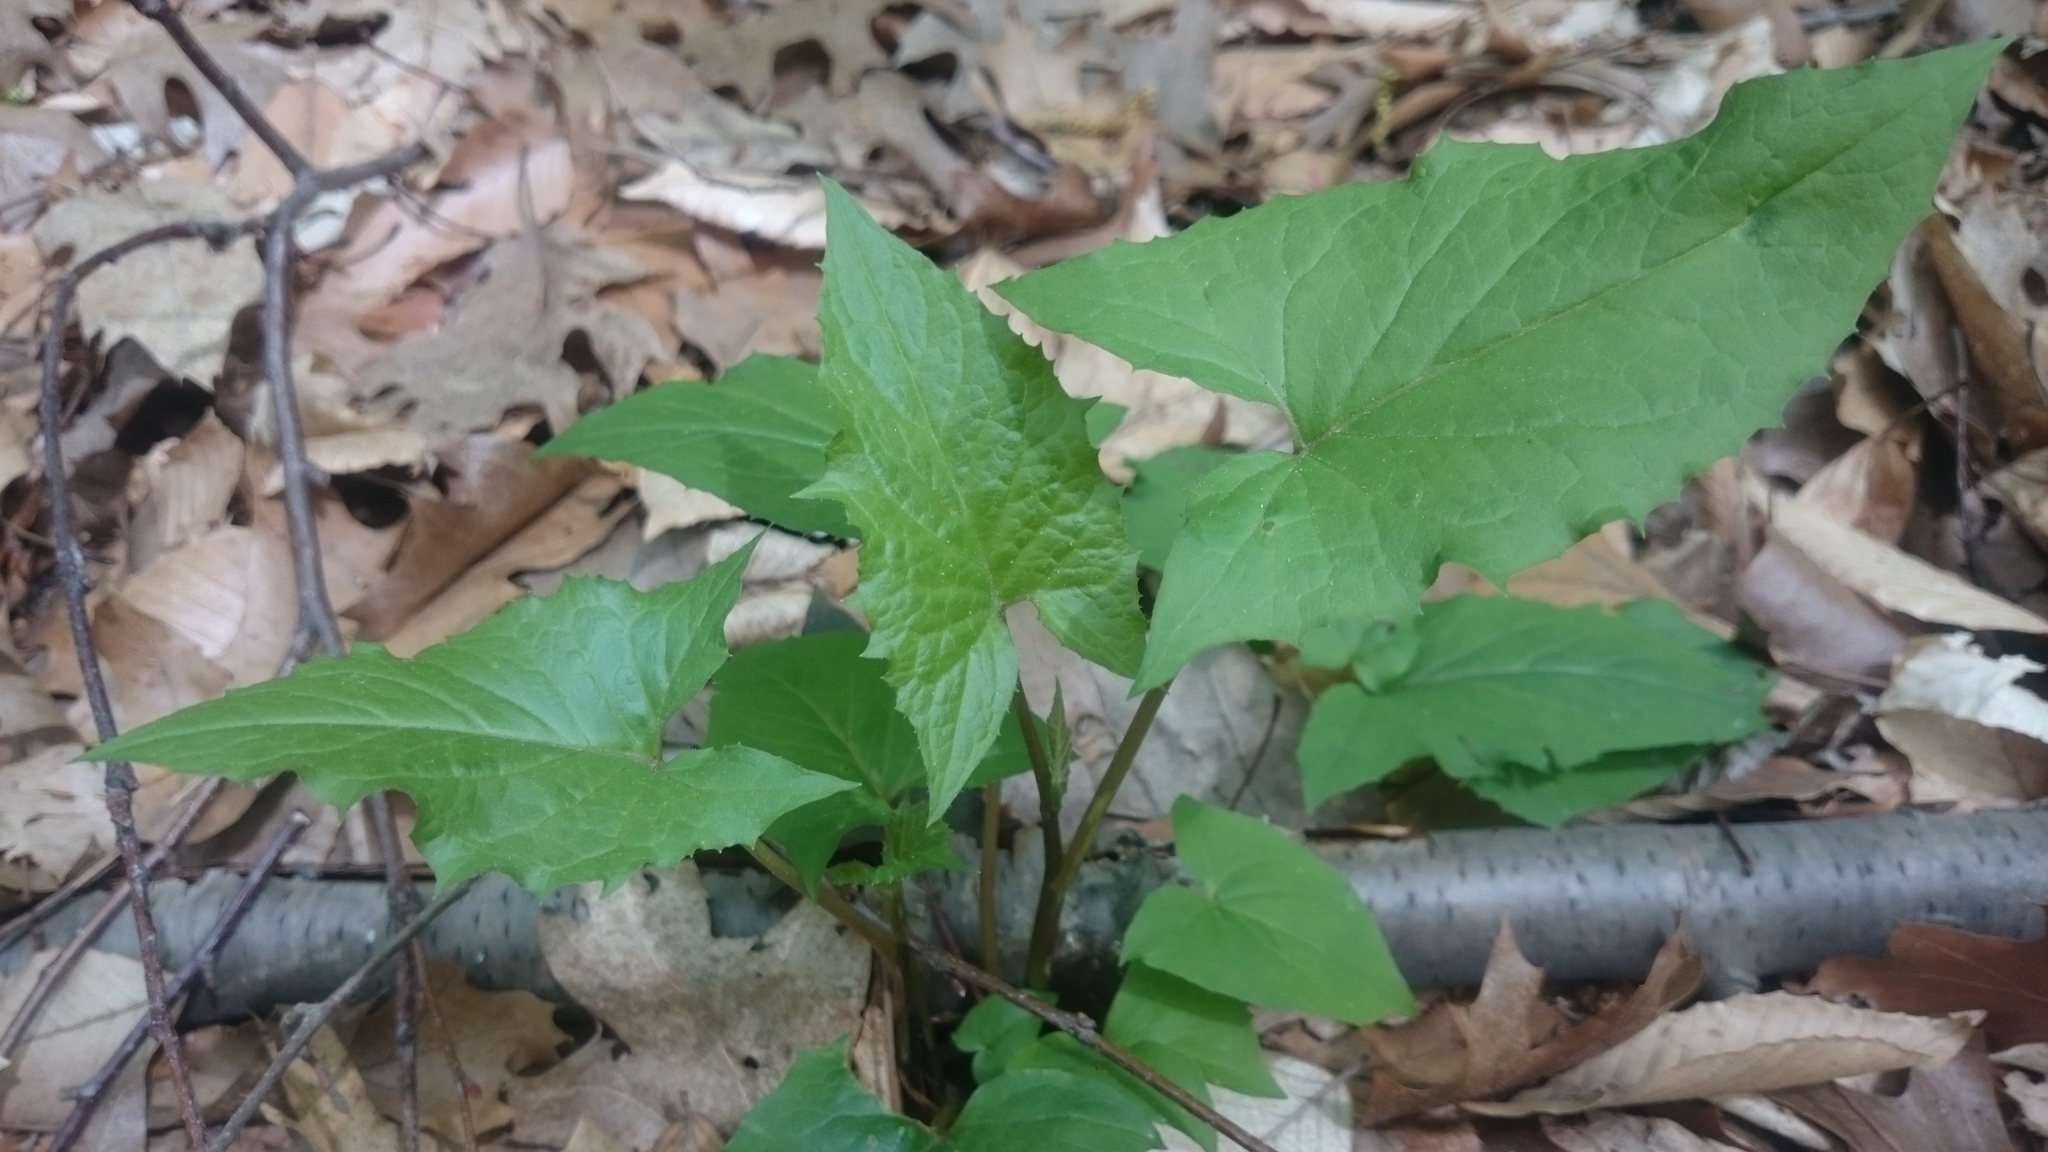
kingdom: Plantae
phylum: Tracheophyta
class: Magnoliopsida
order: Asterales
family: Asteraceae
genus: Nabalus
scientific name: Nabalus
